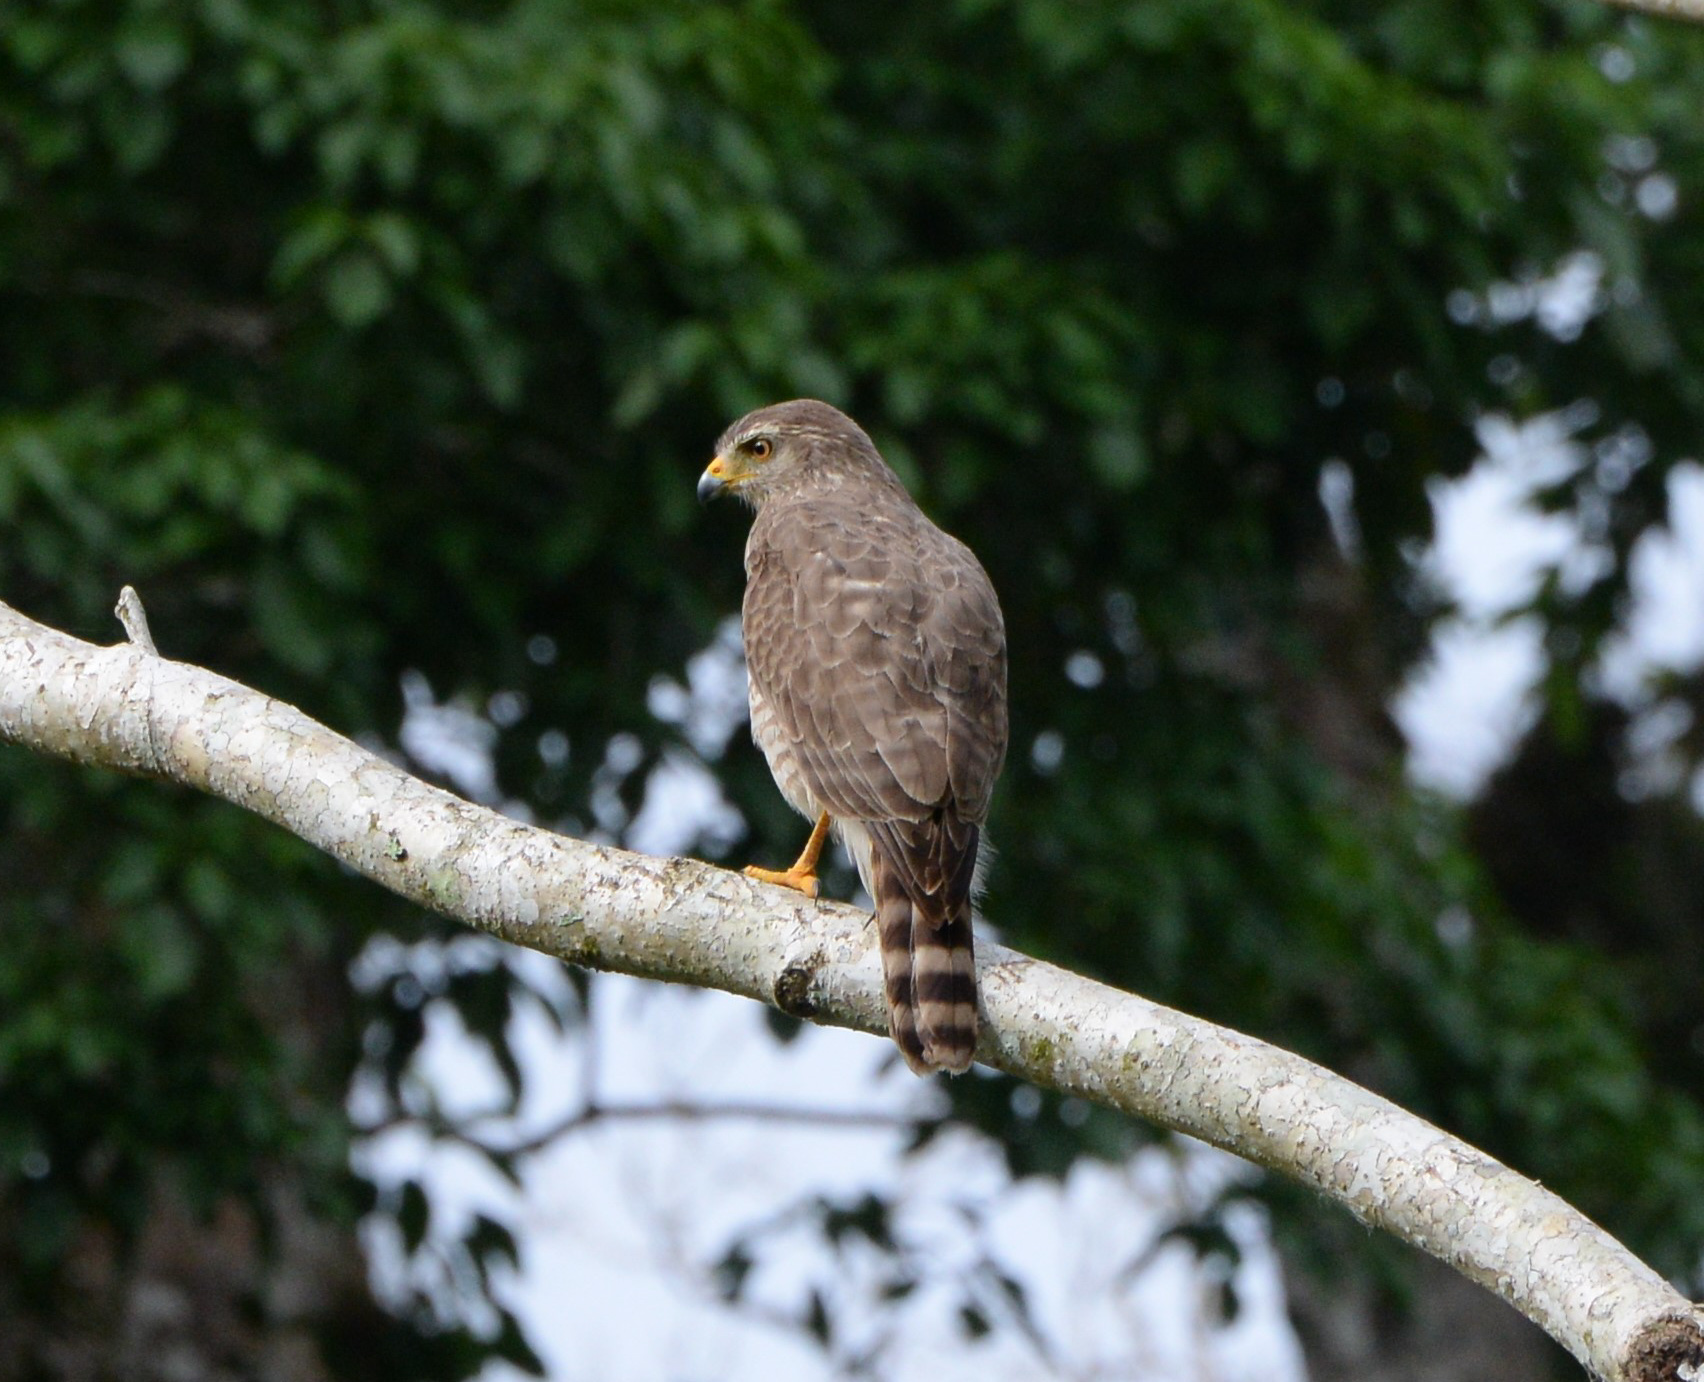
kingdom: Animalia
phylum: Chordata
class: Aves
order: Accipitriformes
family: Accipitridae
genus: Rupornis
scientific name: Rupornis magnirostris
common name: Roadside hawk
